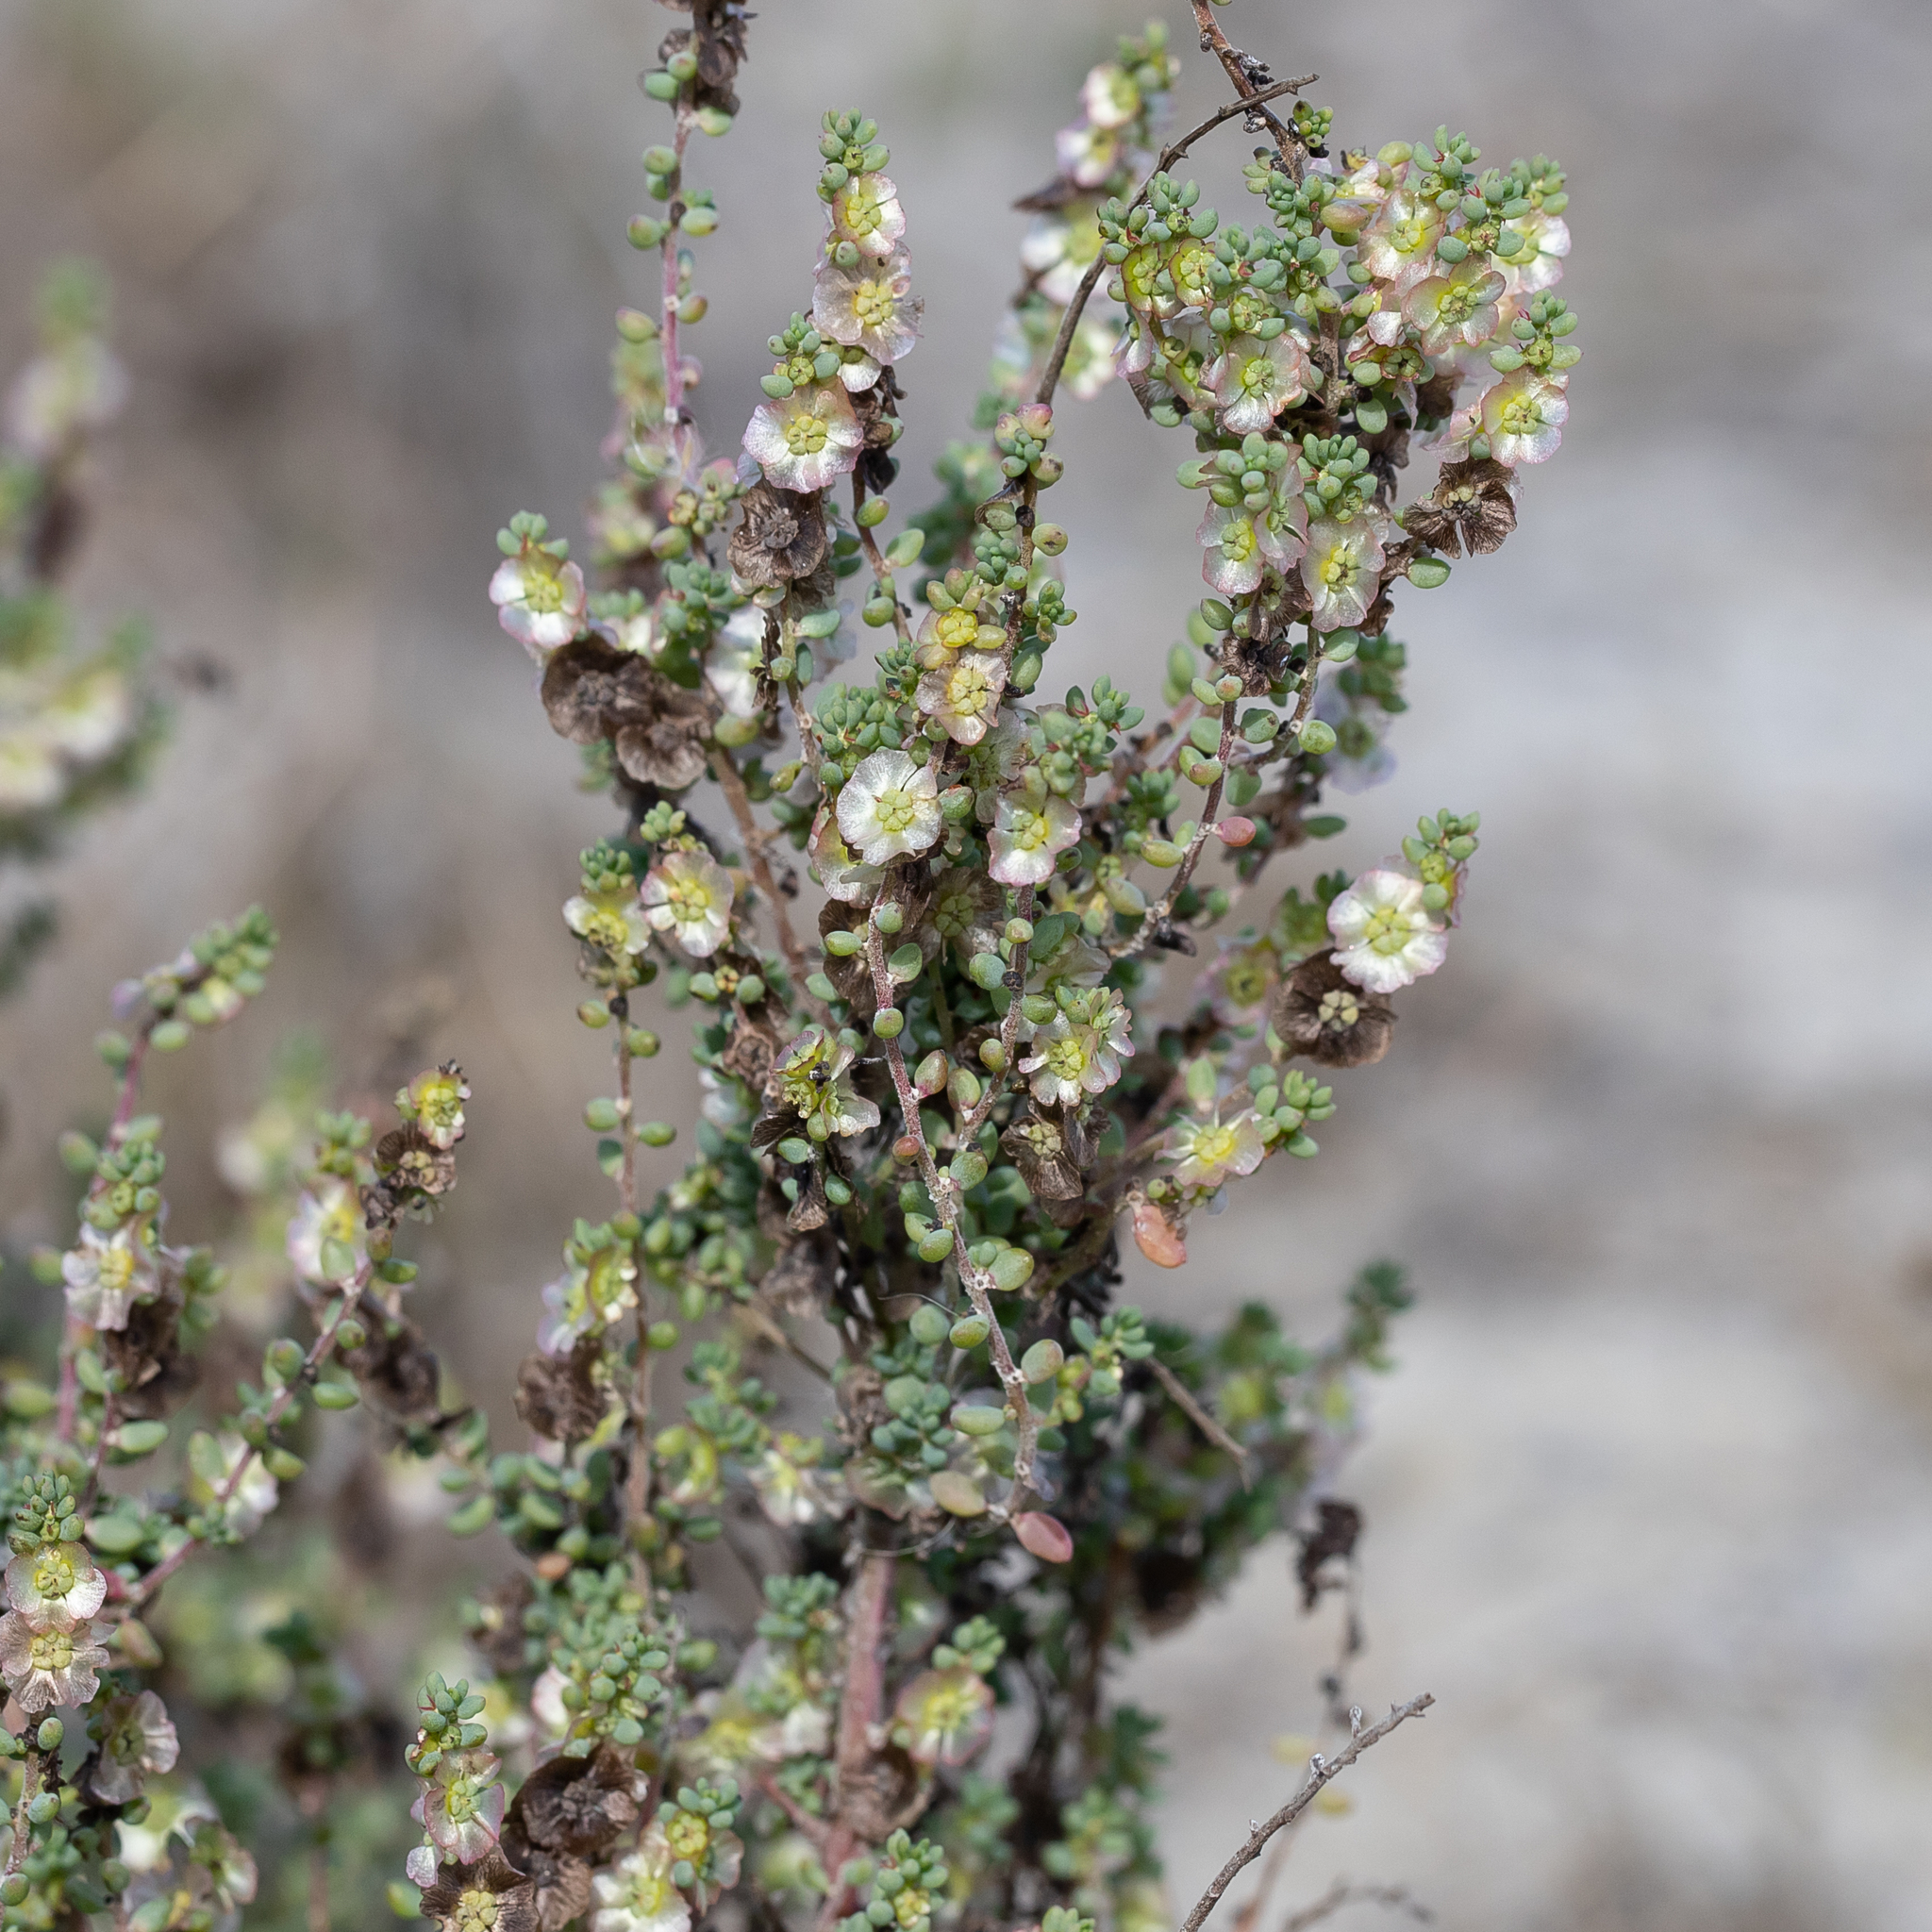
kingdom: Plantae
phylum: Tracheophyta
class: Magnoliopsida
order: Caryophyllales
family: Amaranthaceae
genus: Maireana
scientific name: Maireana brevifolia
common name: Eastern cottonbush
